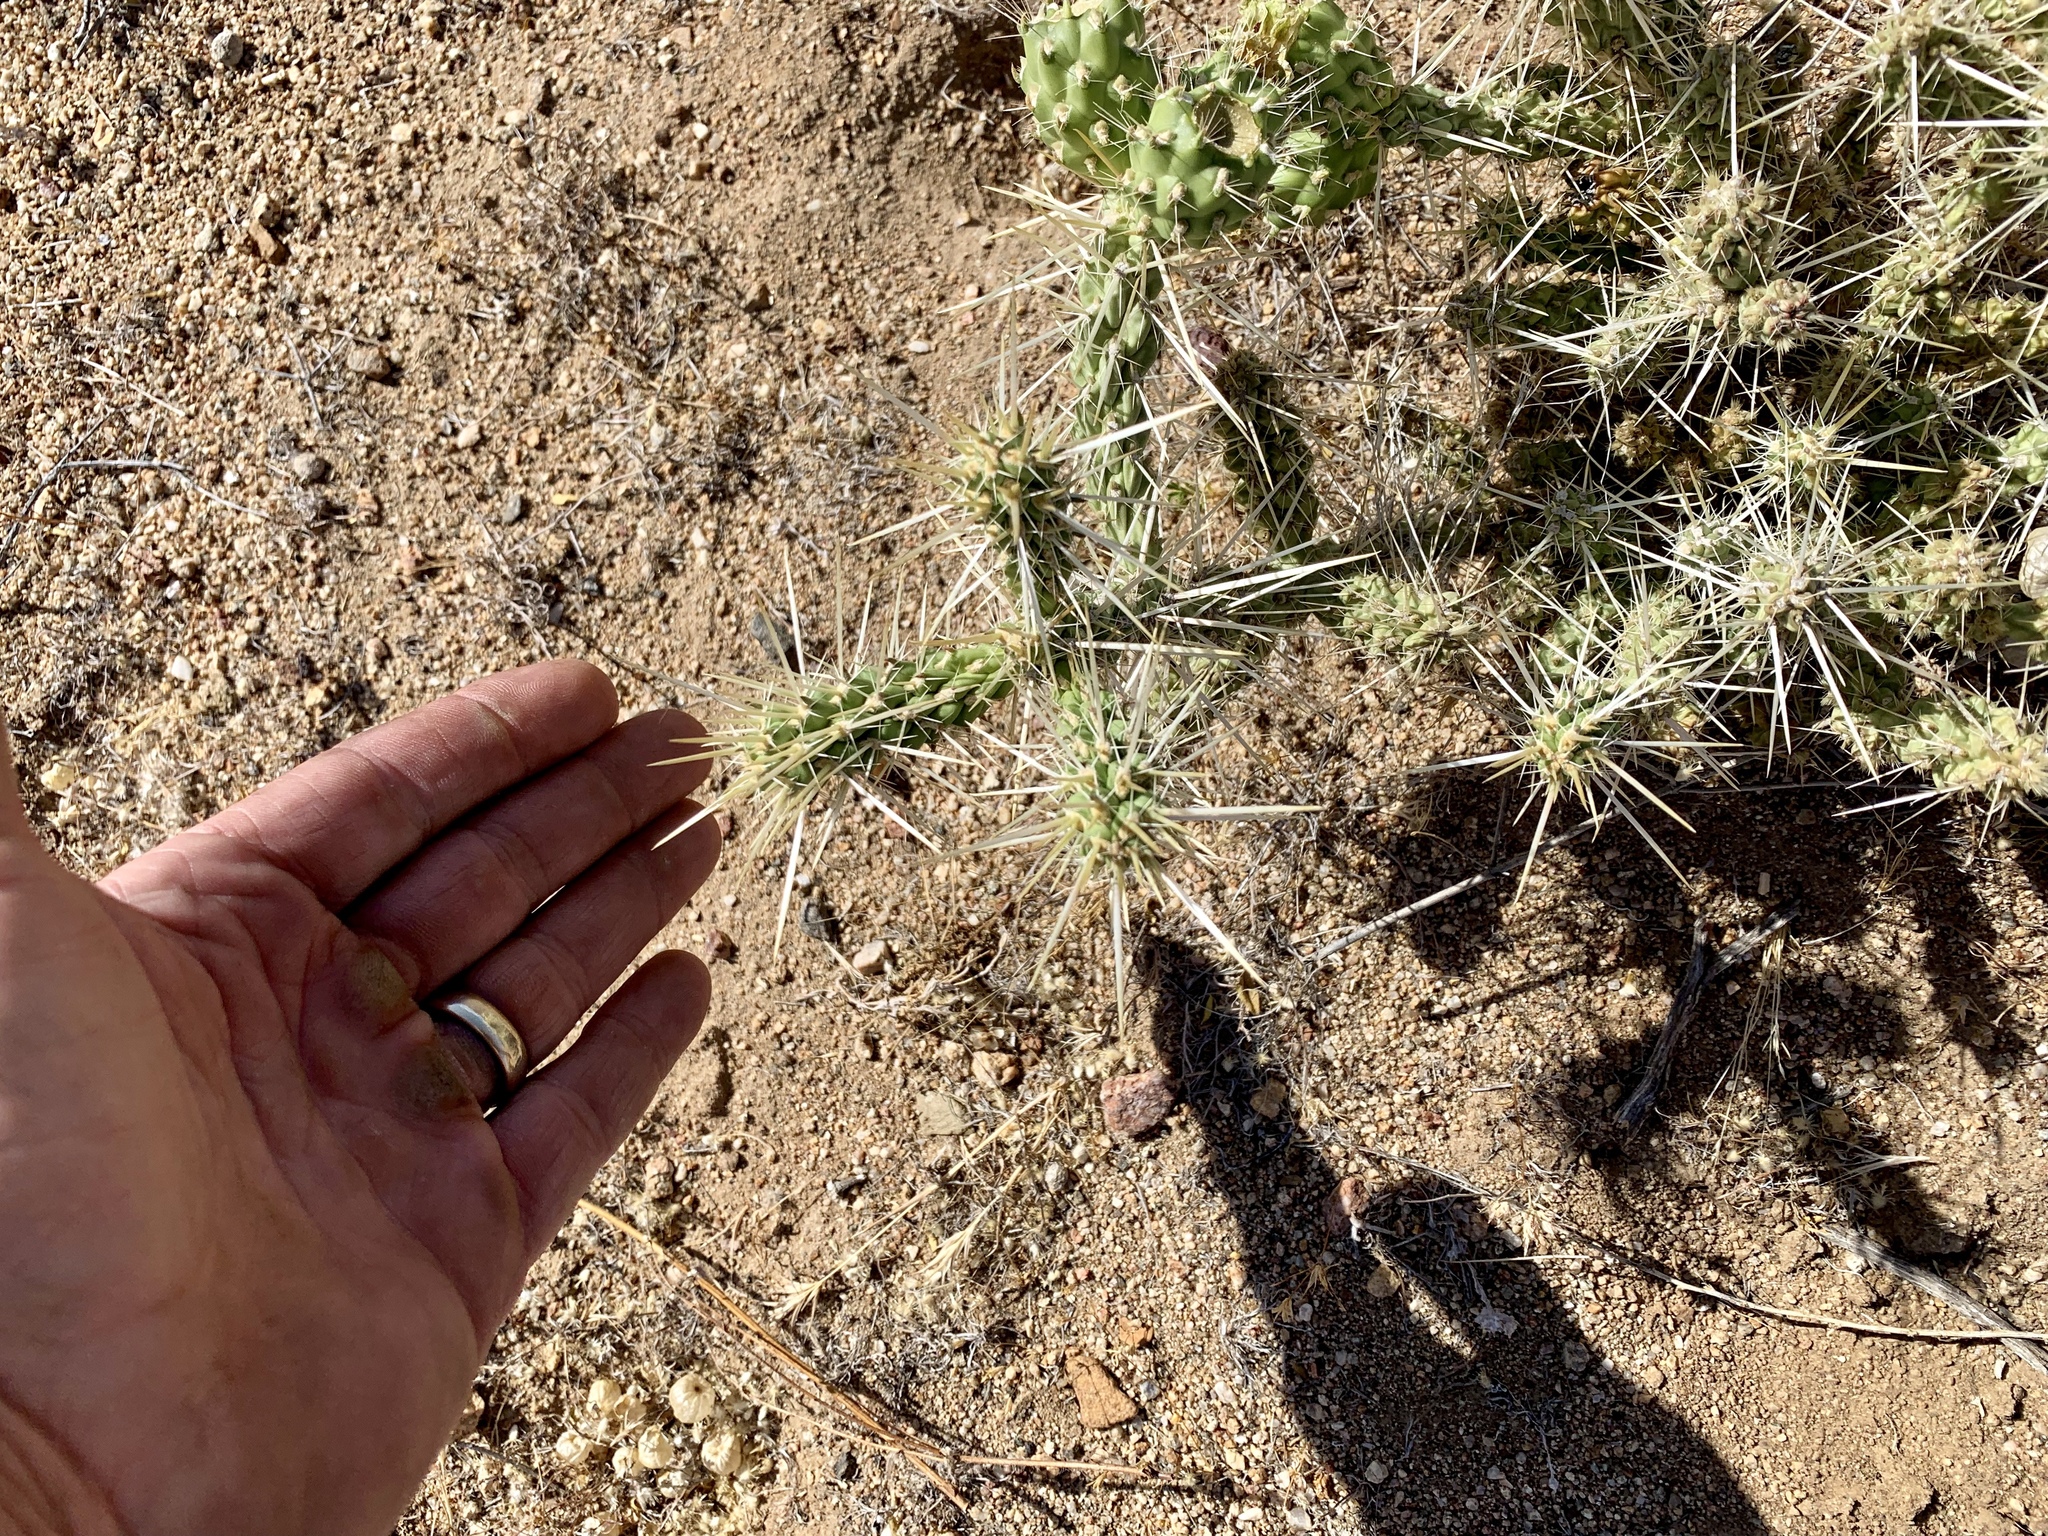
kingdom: Plantae
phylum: Tracheophyta
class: Magnoliopsida
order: Caryophyllales
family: Cactaceae
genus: Cylindropuntia
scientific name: Cylindropuntia whipplei
